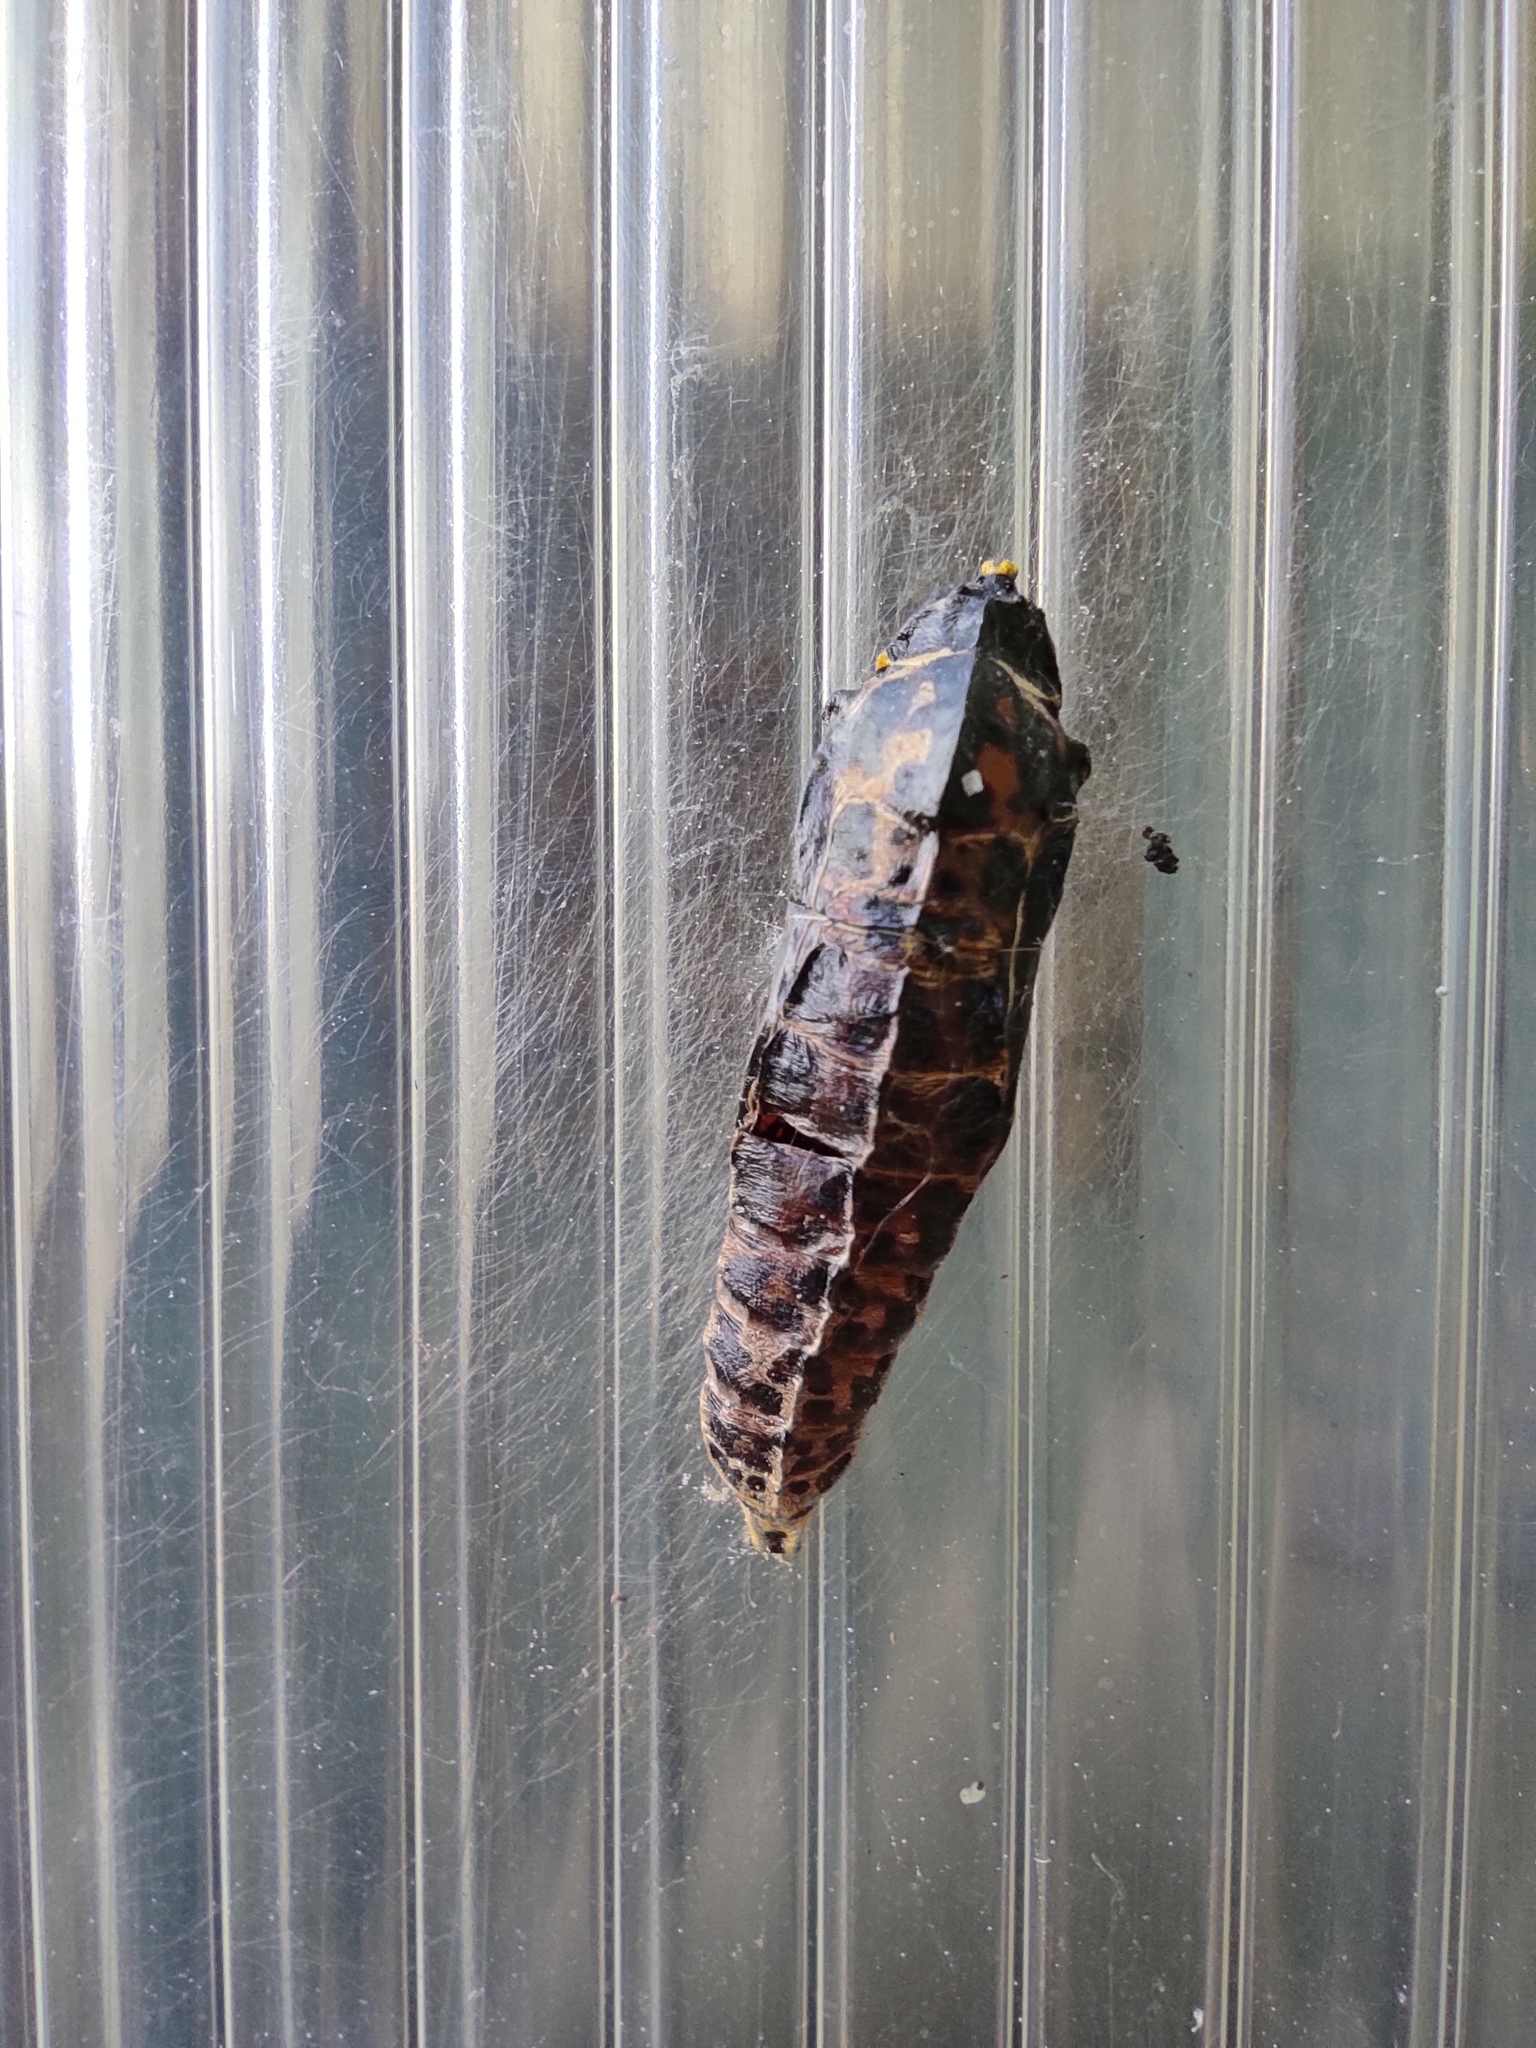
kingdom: Animalia
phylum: Arthropoda
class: Insecta
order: Lepidoptera
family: Pieridae
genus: Aporia
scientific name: Aporia crataegi
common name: Black-veined white
